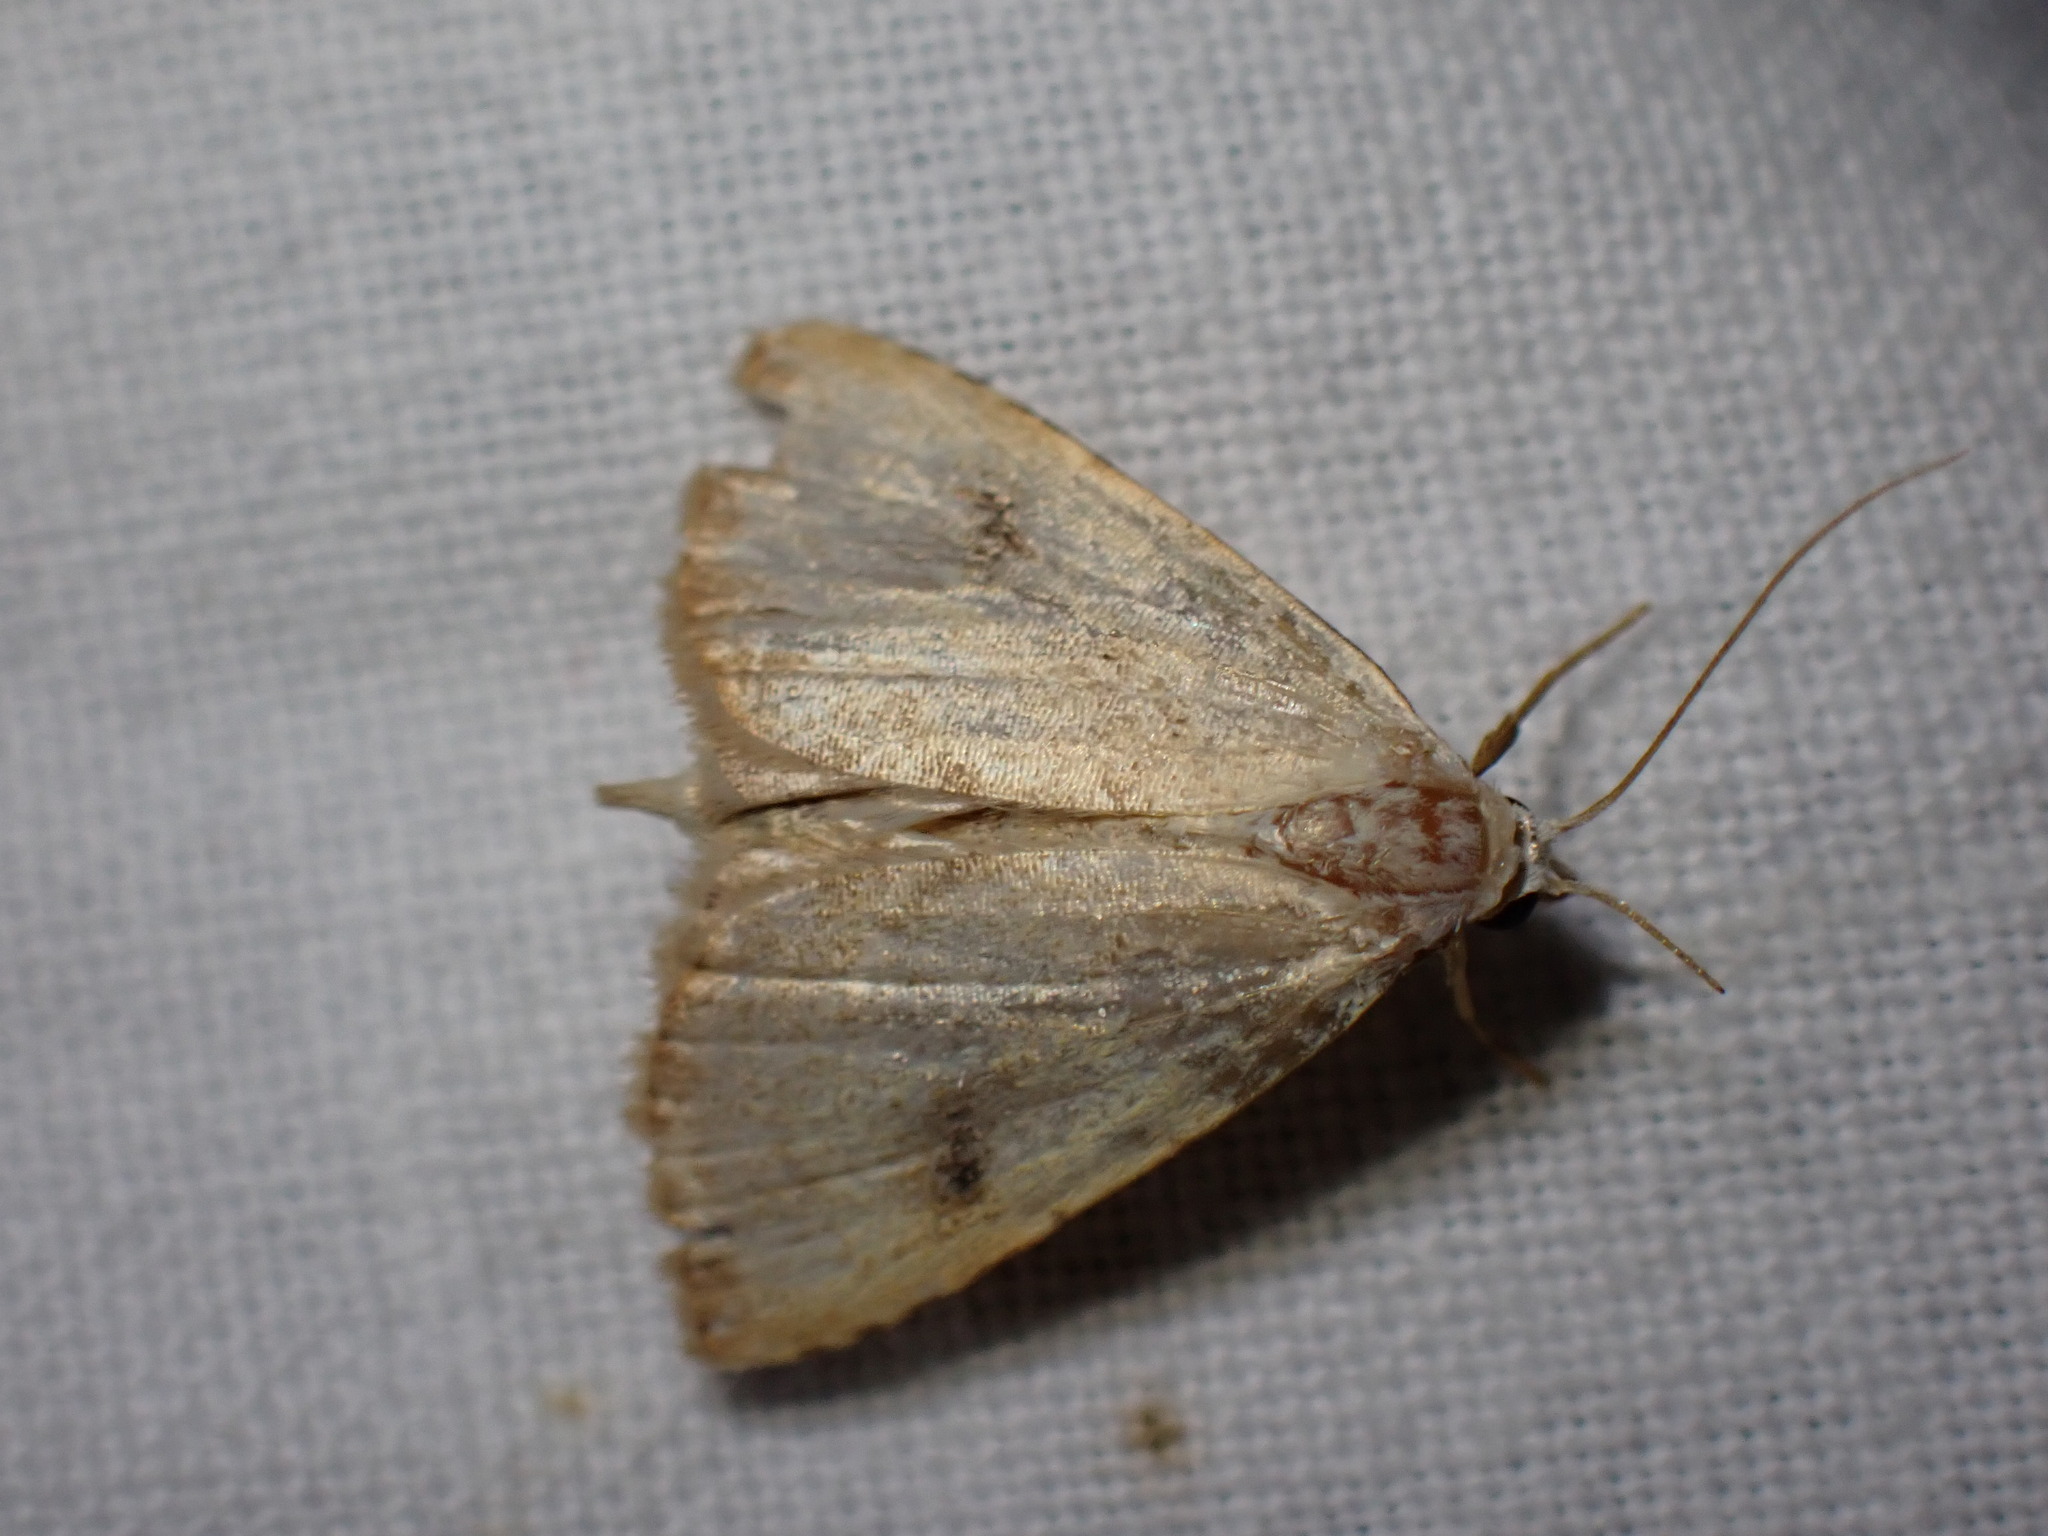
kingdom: Animalia
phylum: Arthropoda
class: Insecta
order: Lepidoptera
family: Erebidae
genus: Rivula
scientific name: Rivula sericealis
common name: Straw dot
